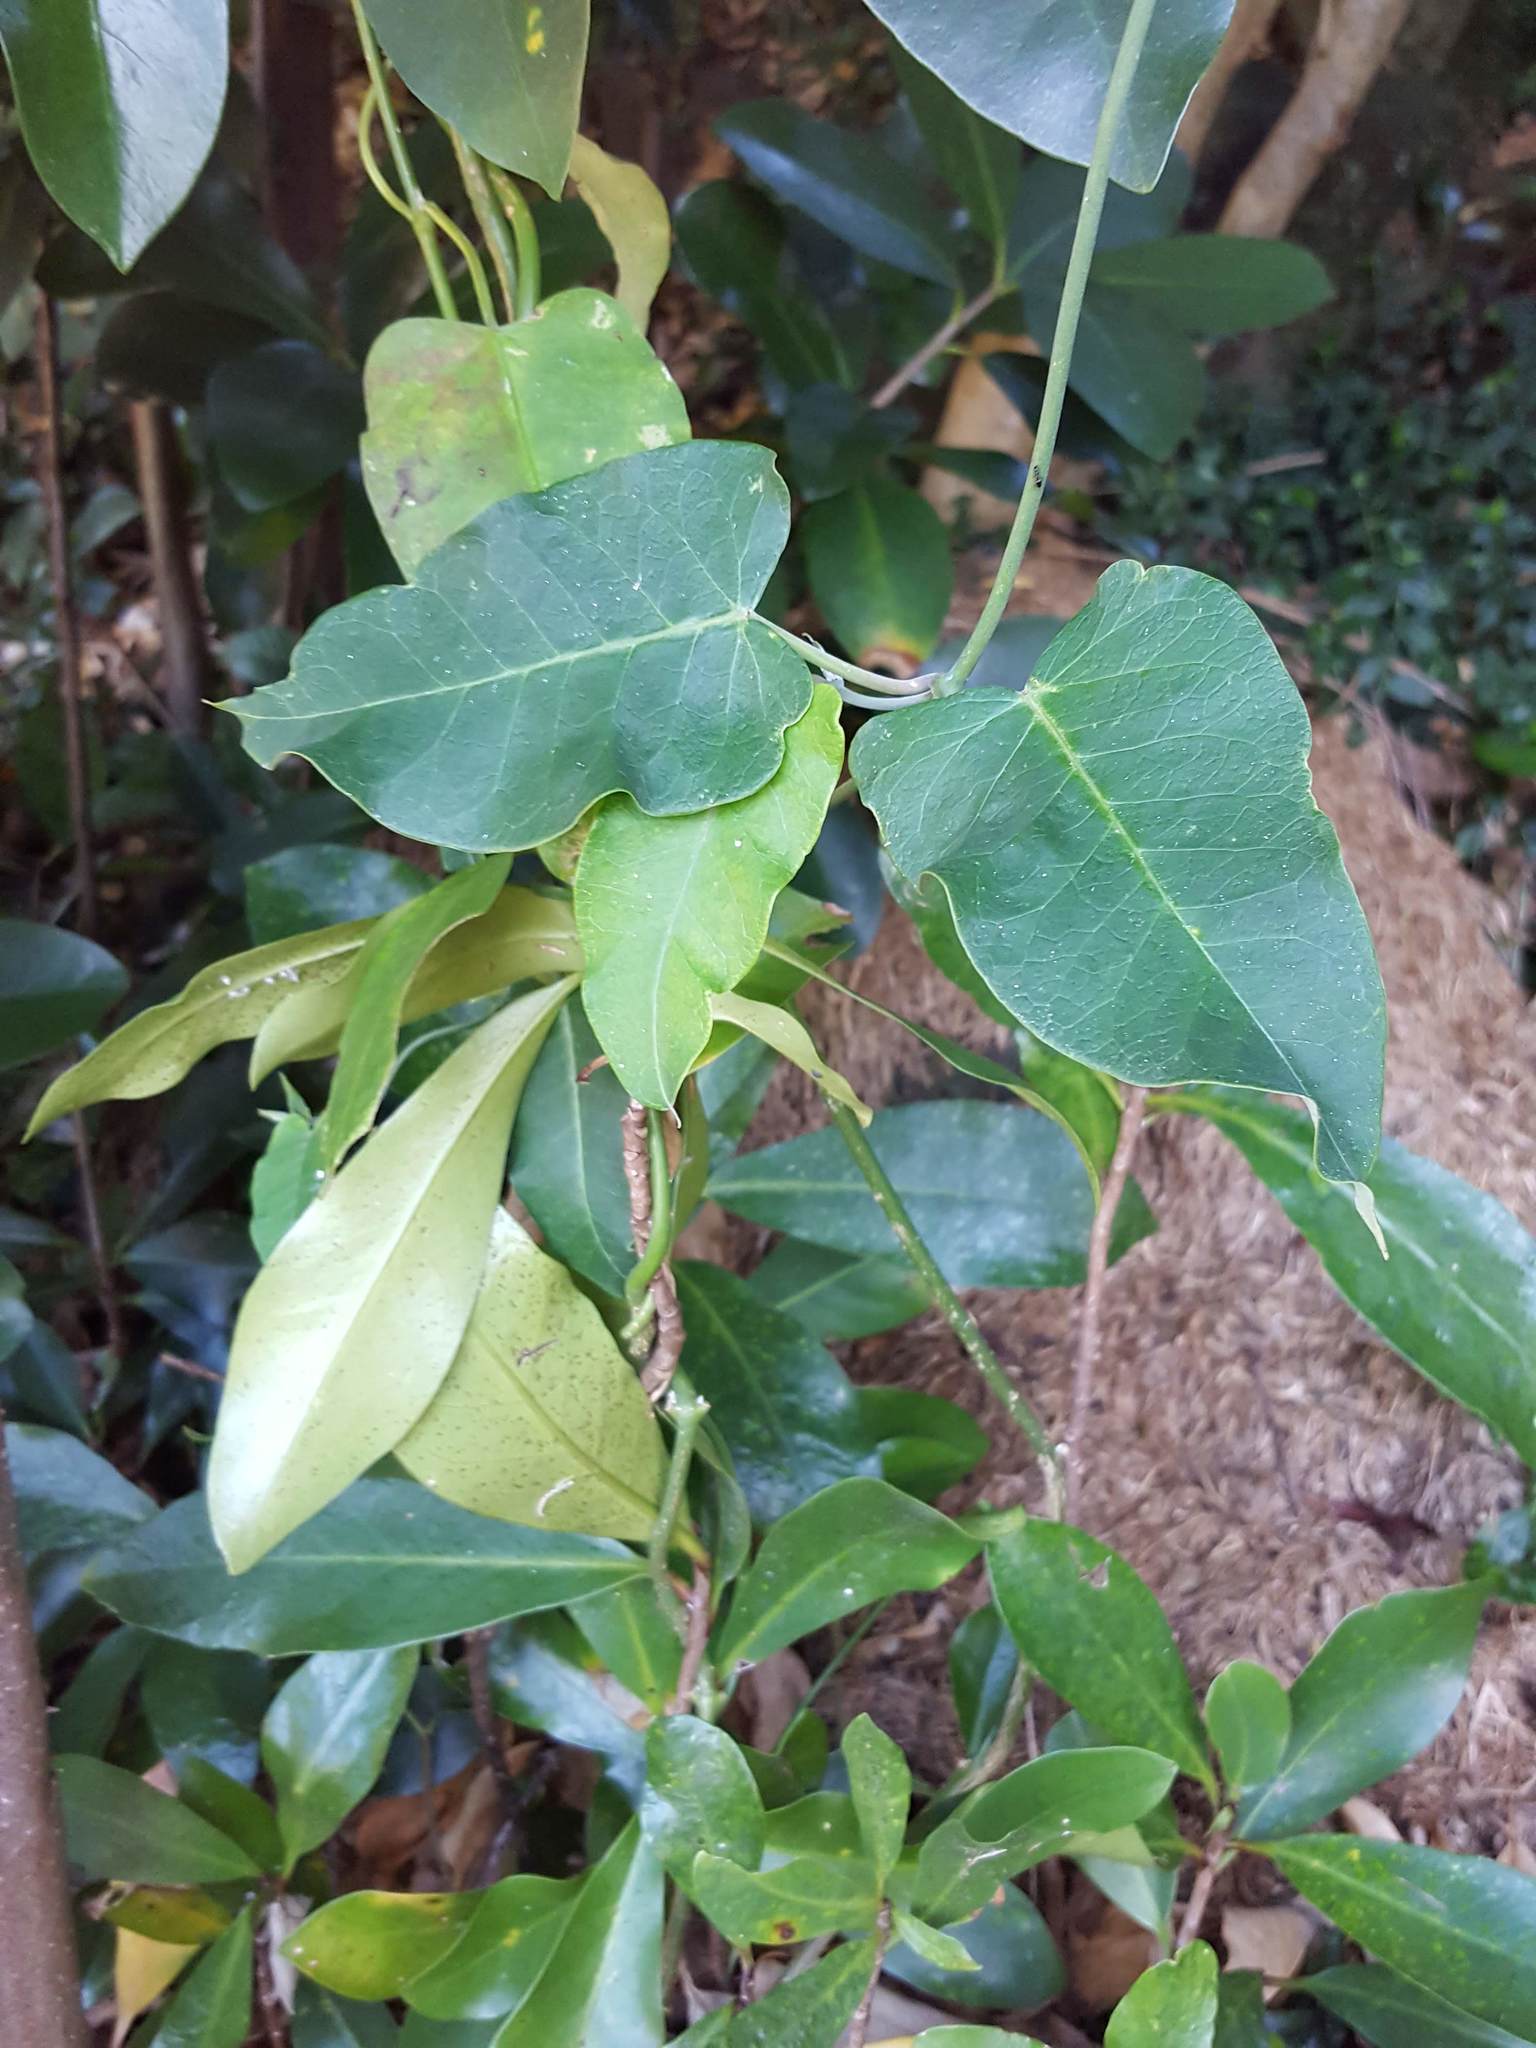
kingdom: Plantae
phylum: Tracheophyta
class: Magnoliopsida
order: Gentianales
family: Apocynaceae
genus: Araujia
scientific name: Araujia sericifera
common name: White bladderflower
